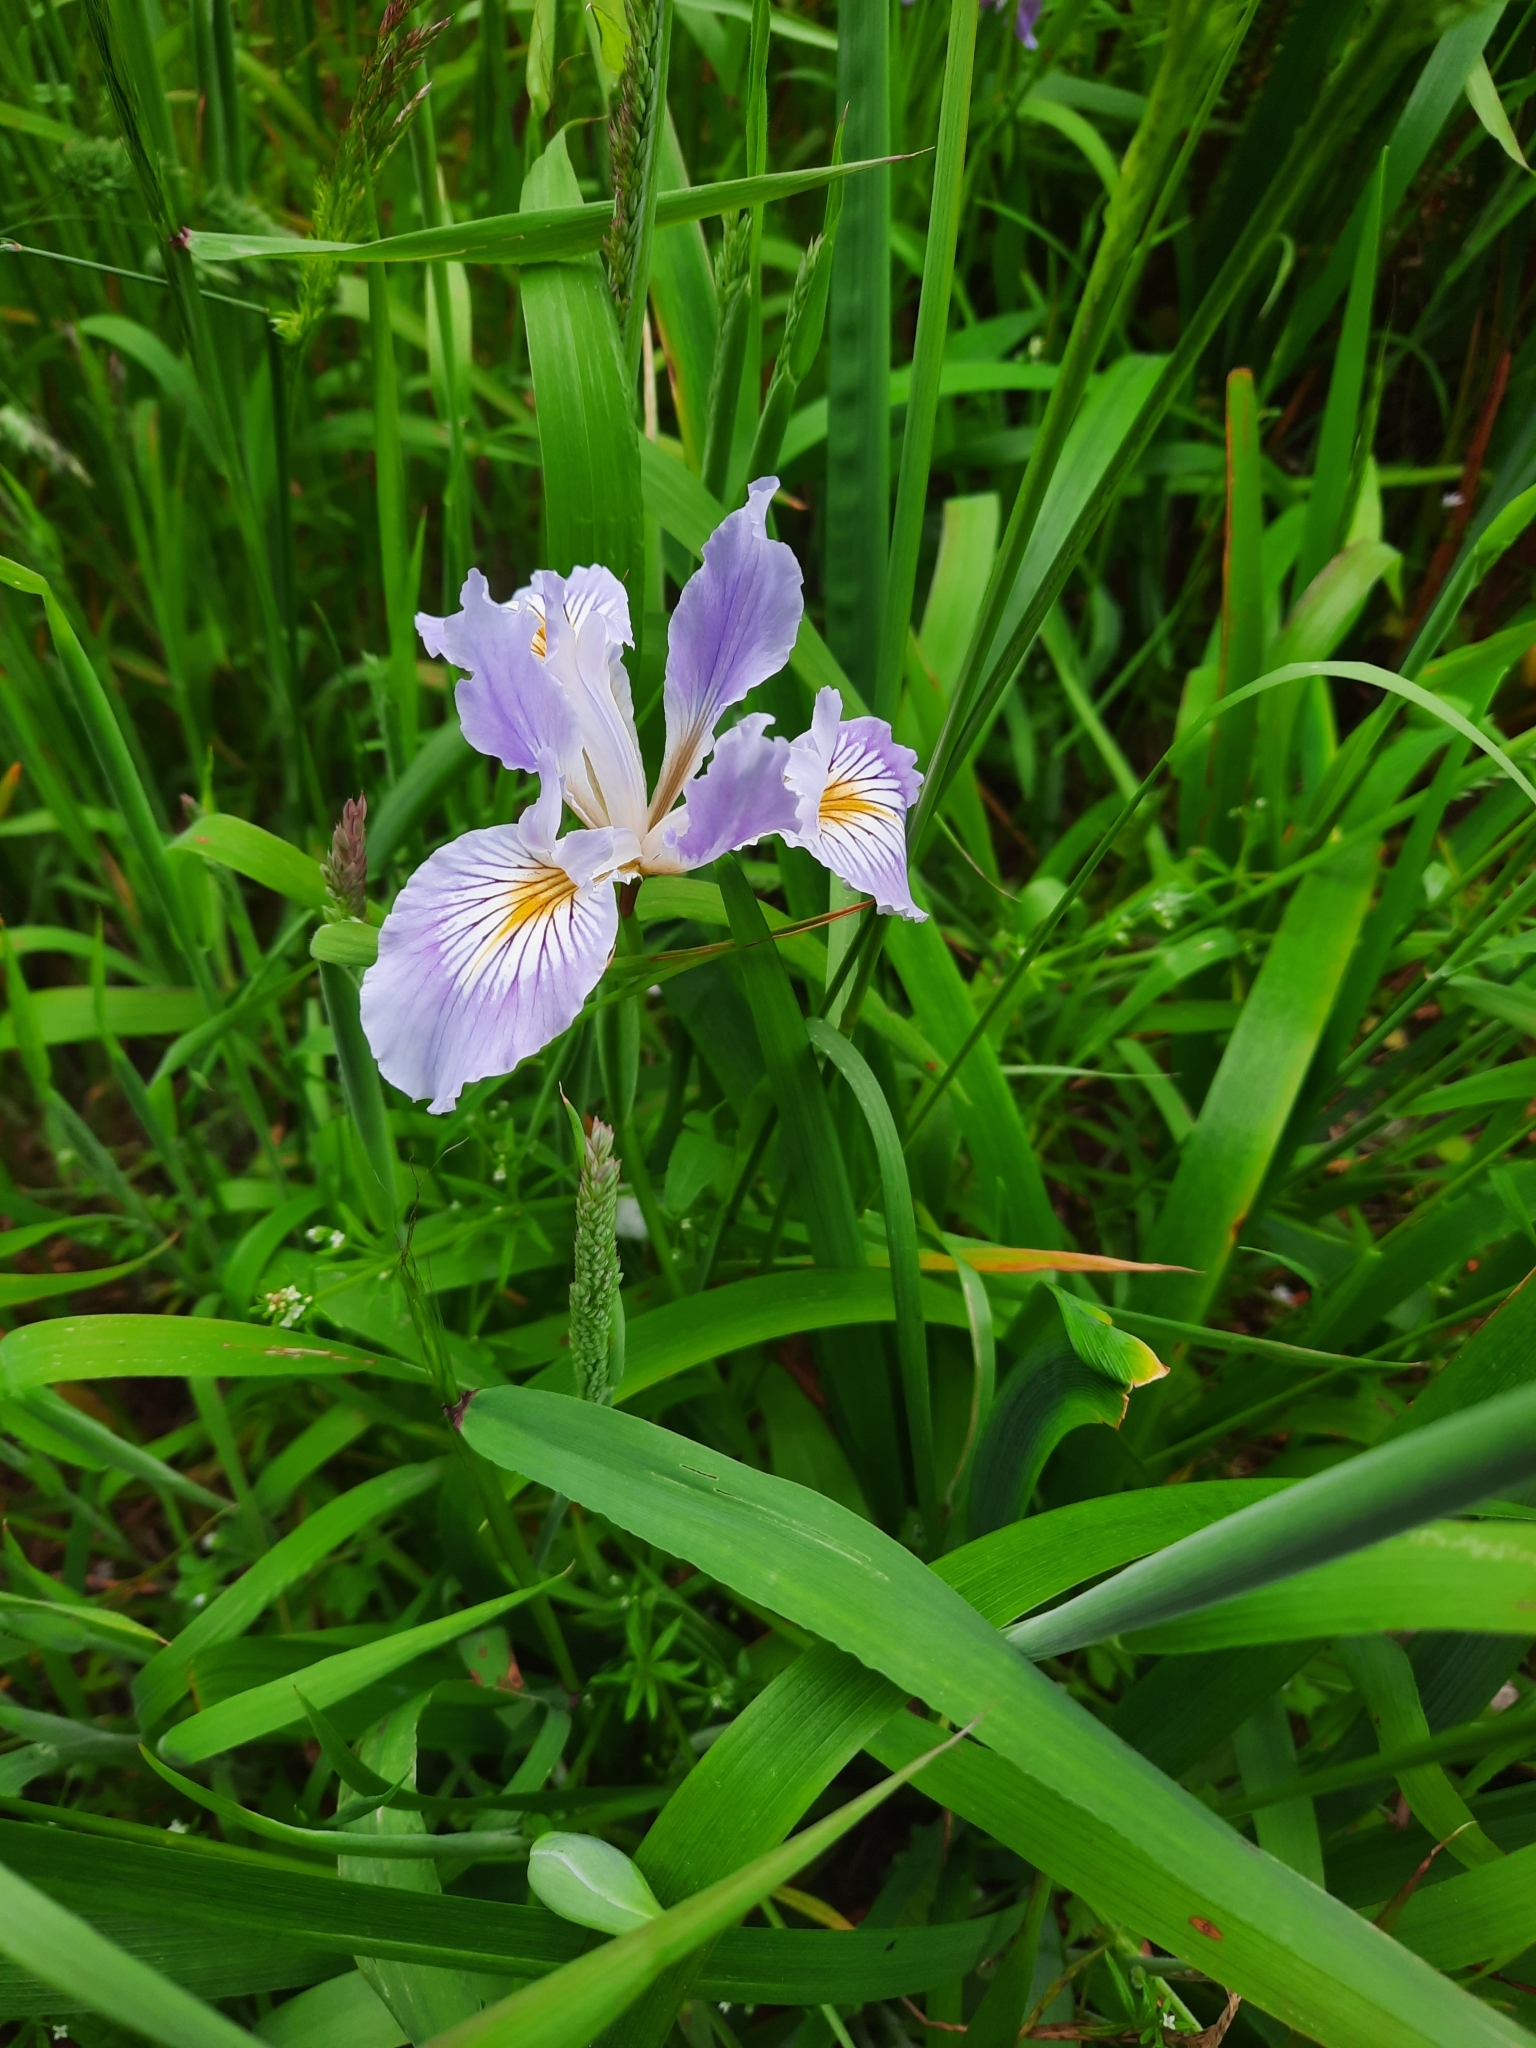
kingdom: Plantae
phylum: Tracheophyta
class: Liliopsida
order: Asparagales
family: Iridaceae
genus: Iris
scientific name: Iris douglasiana
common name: Marin iris
